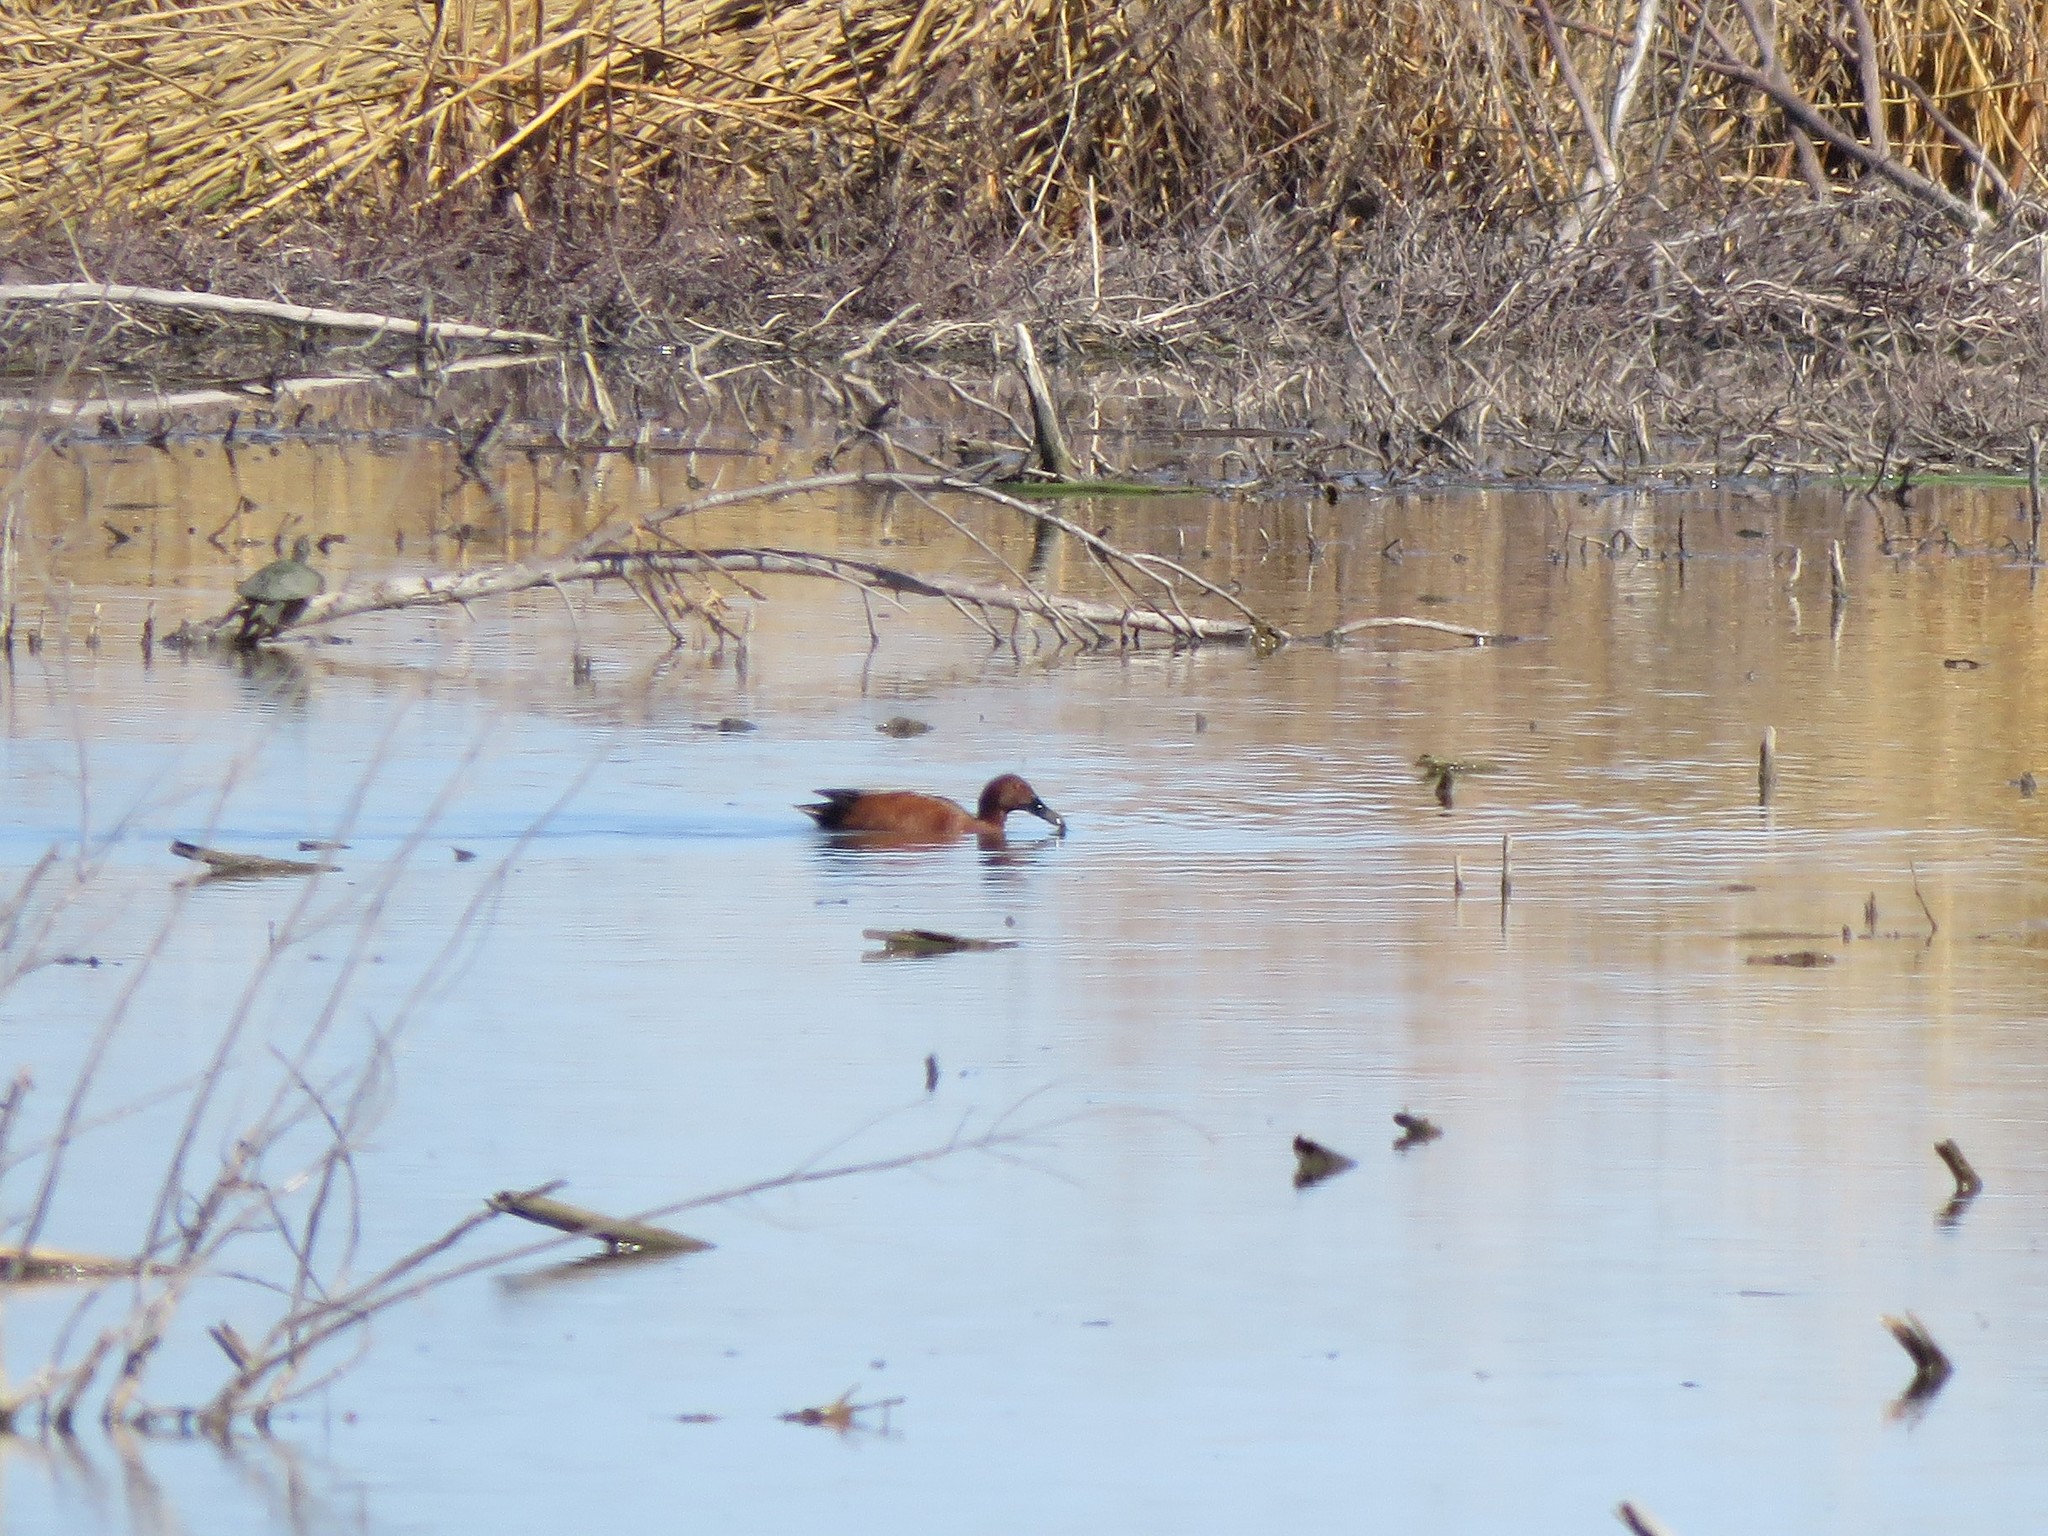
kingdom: Animalia
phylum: Chordata
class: Aves
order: Anseriformes
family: Anatidae
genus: Spatula
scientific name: Spatula cyanoptera
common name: Cinnamon teal
